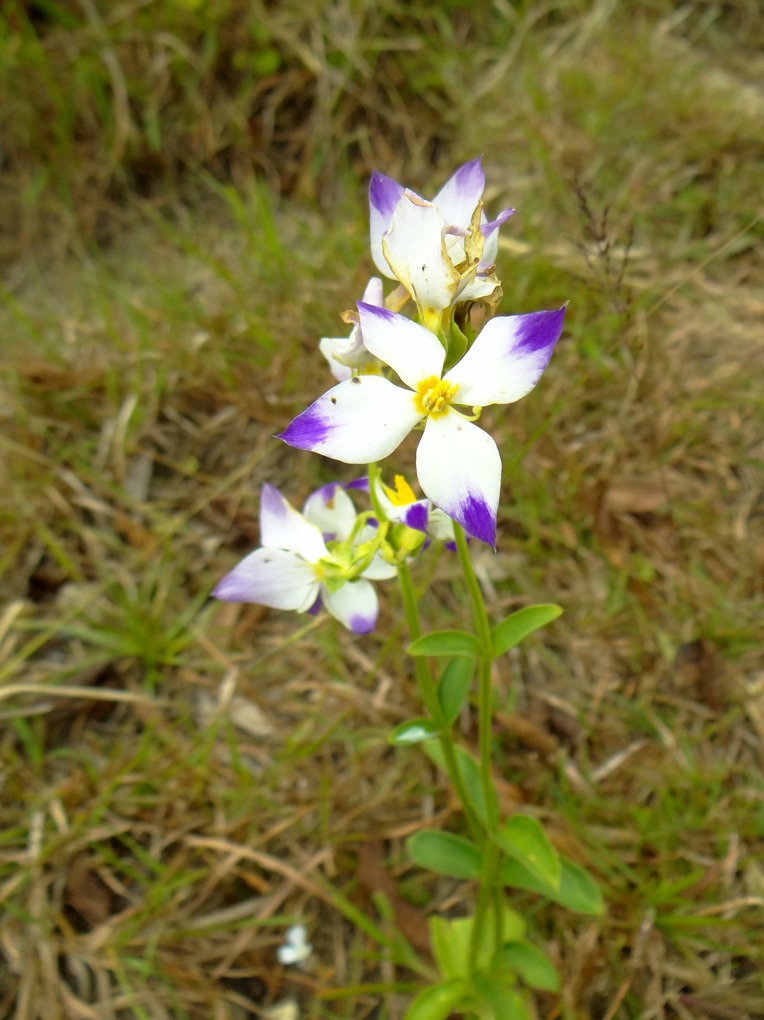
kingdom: Plantae
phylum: Tracheophyta
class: Magnoliopsida
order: Gentianales
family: Gentianaceae
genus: Exacum
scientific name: Exacum tetragonum
